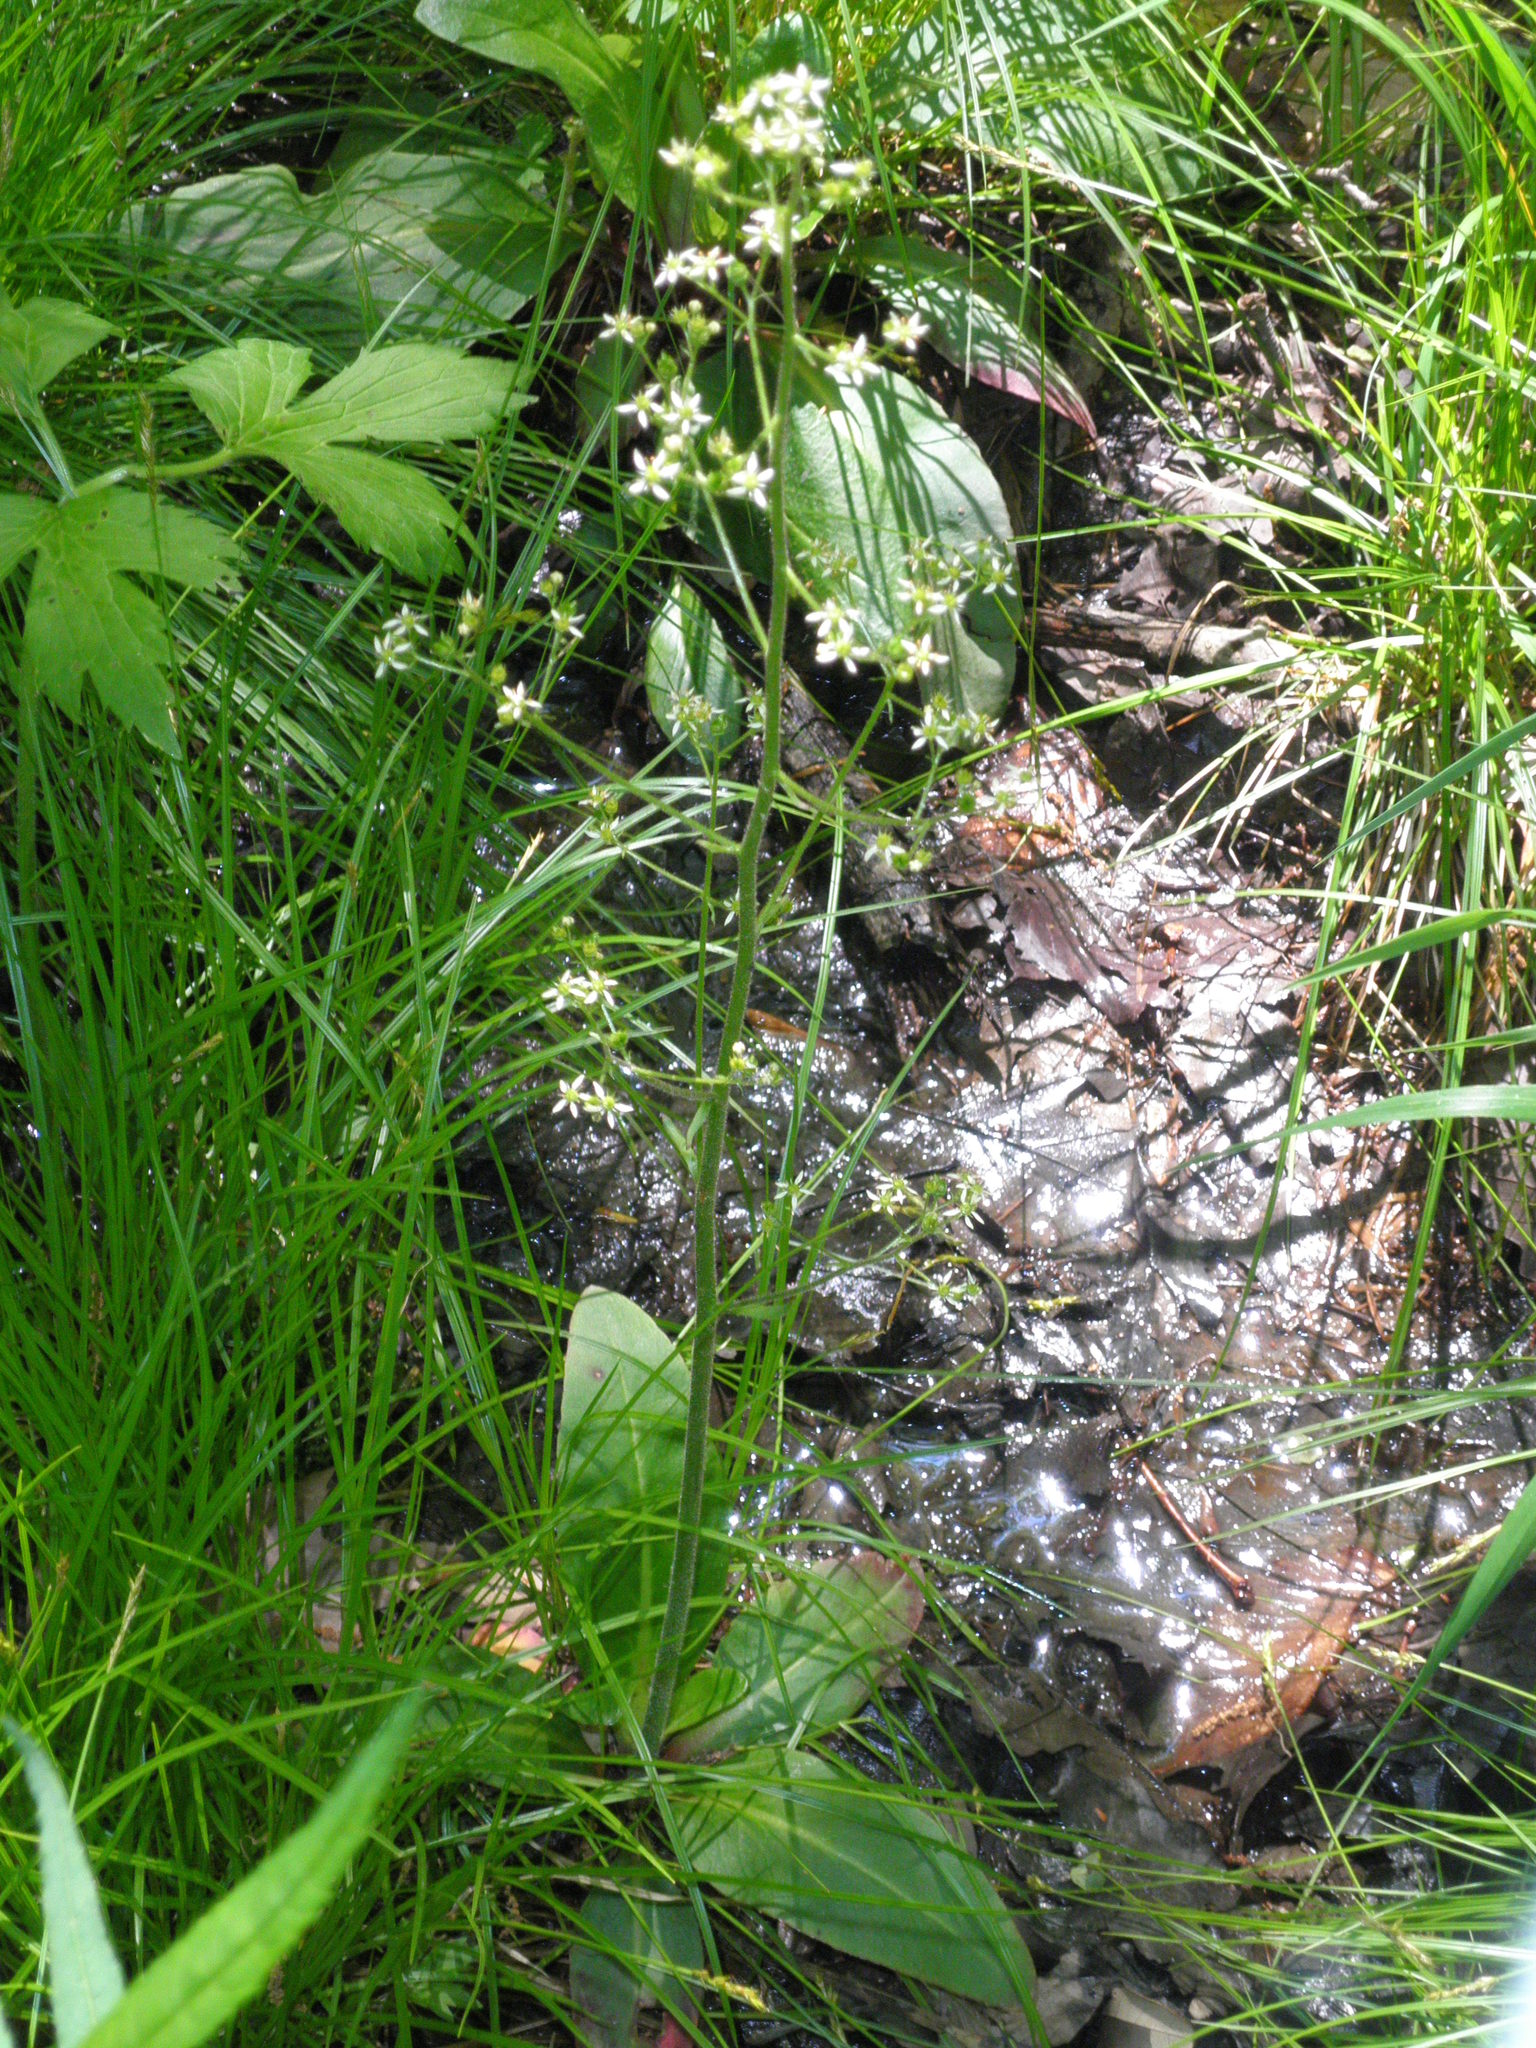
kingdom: Plantae
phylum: Tracheophyta
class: Magnoliopsida
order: Saxifragales
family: Saxifragaceae
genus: Micranthes
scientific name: Micranthes pensylvanica
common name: Marsh saxifrage
